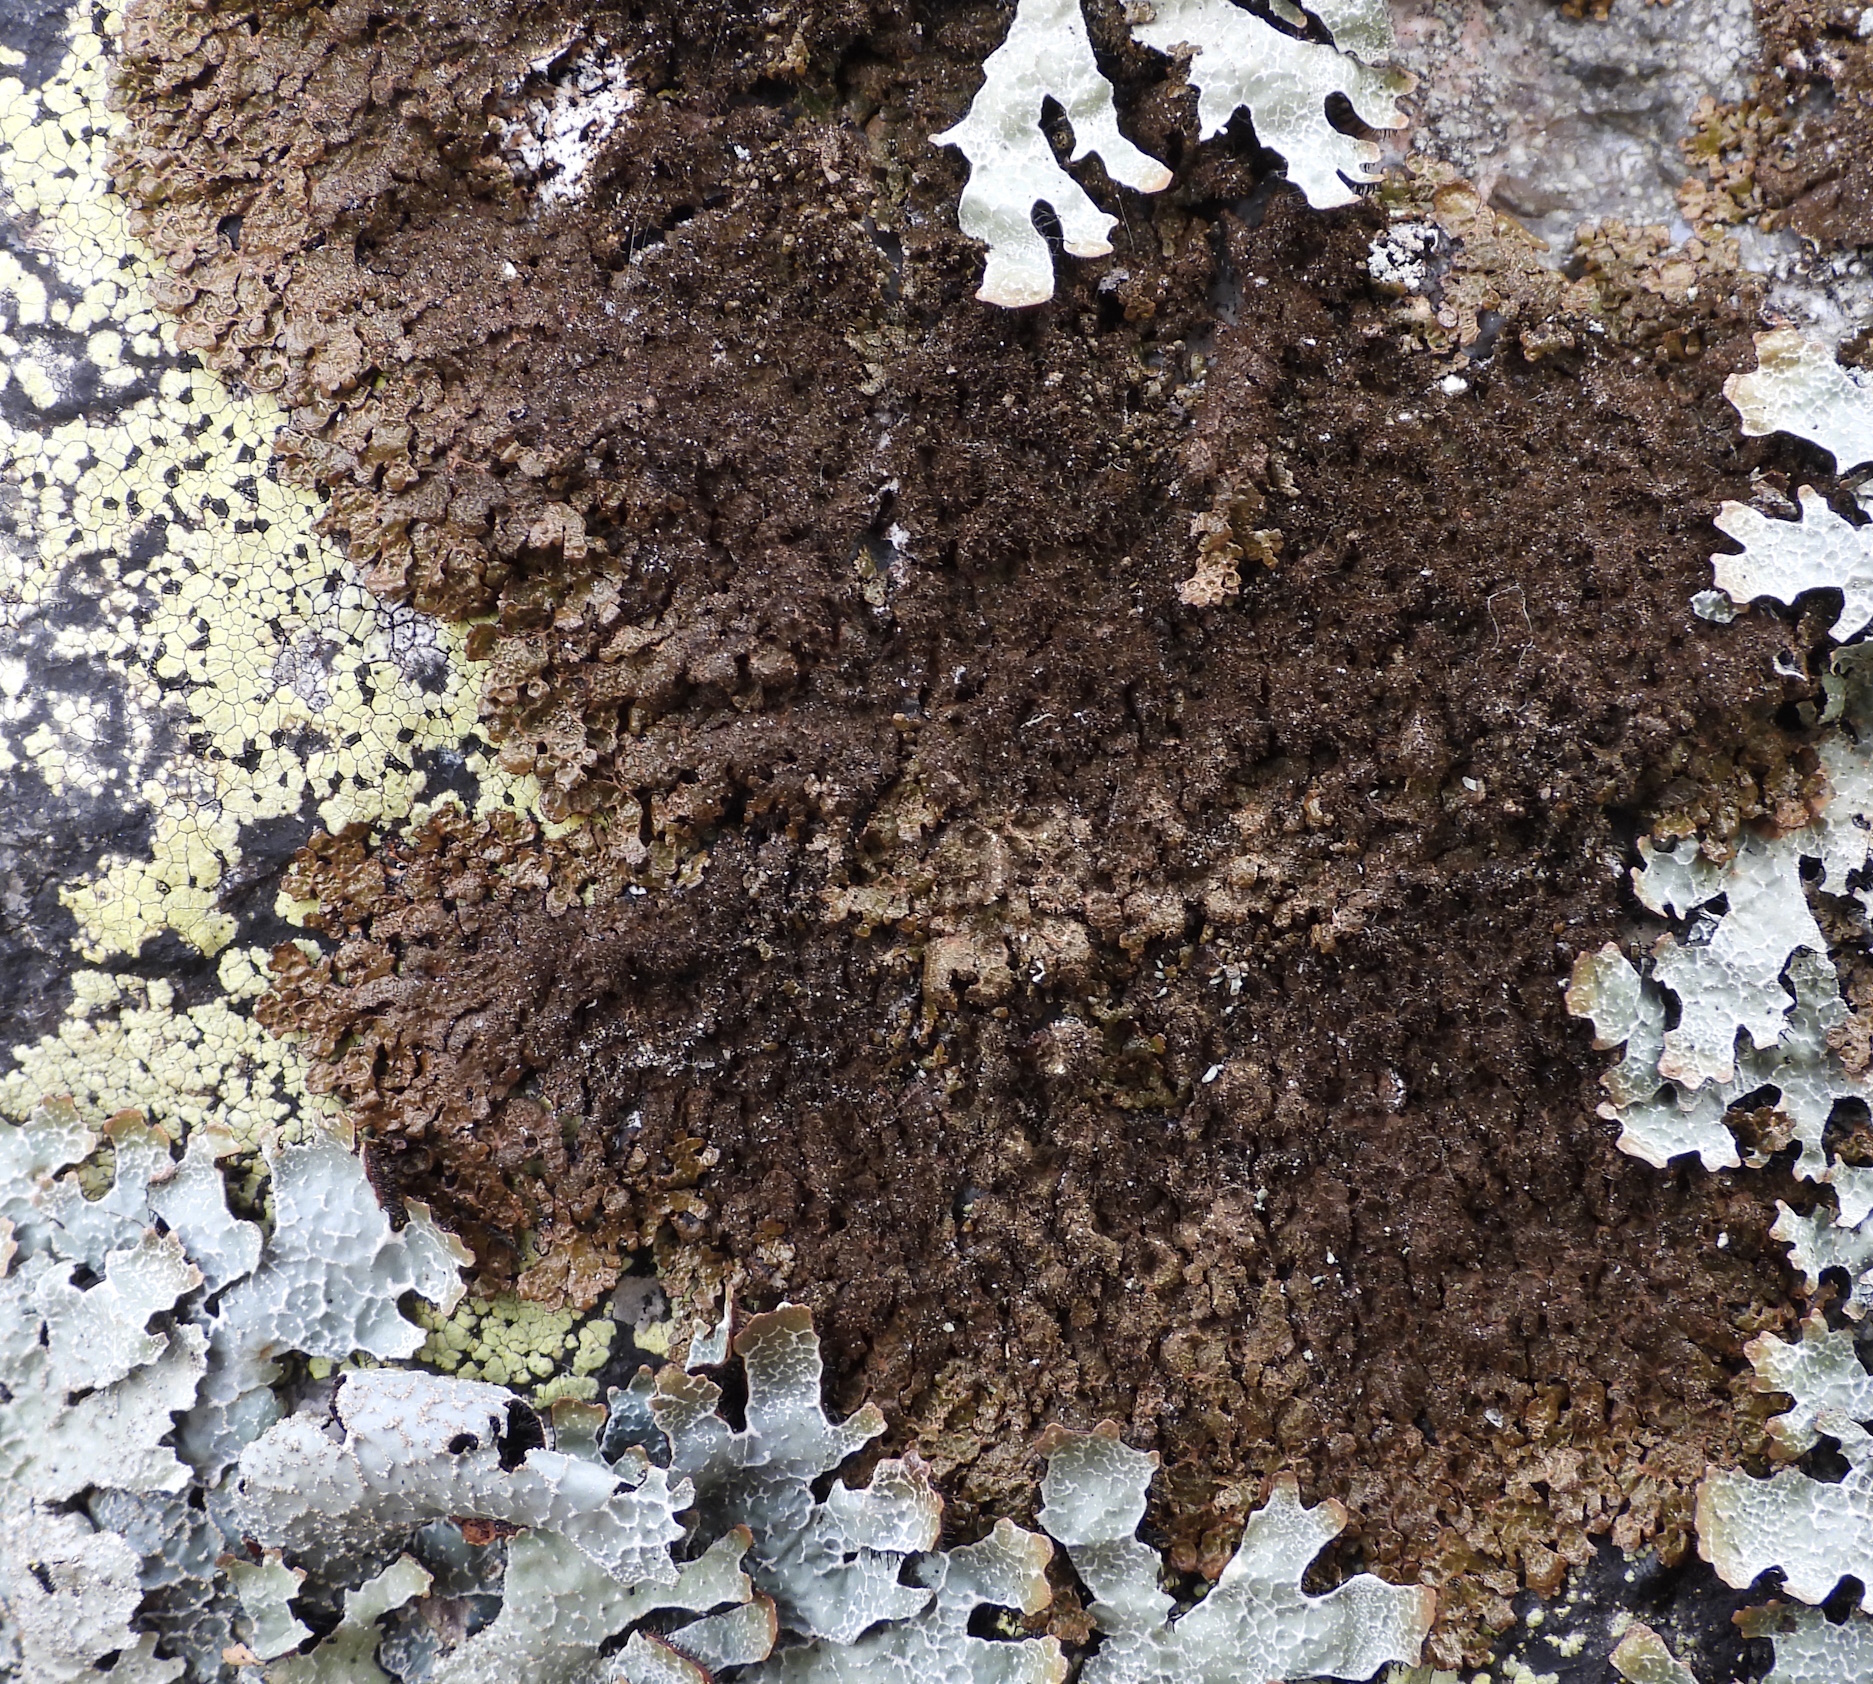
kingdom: Fungi
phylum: Ascomycota
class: Lecanoromycetes
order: Lecanorales
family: Parmeliaceae
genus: Melanelixia
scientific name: Melanelixia fuliginosa
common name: Shiny camouflage lichen
